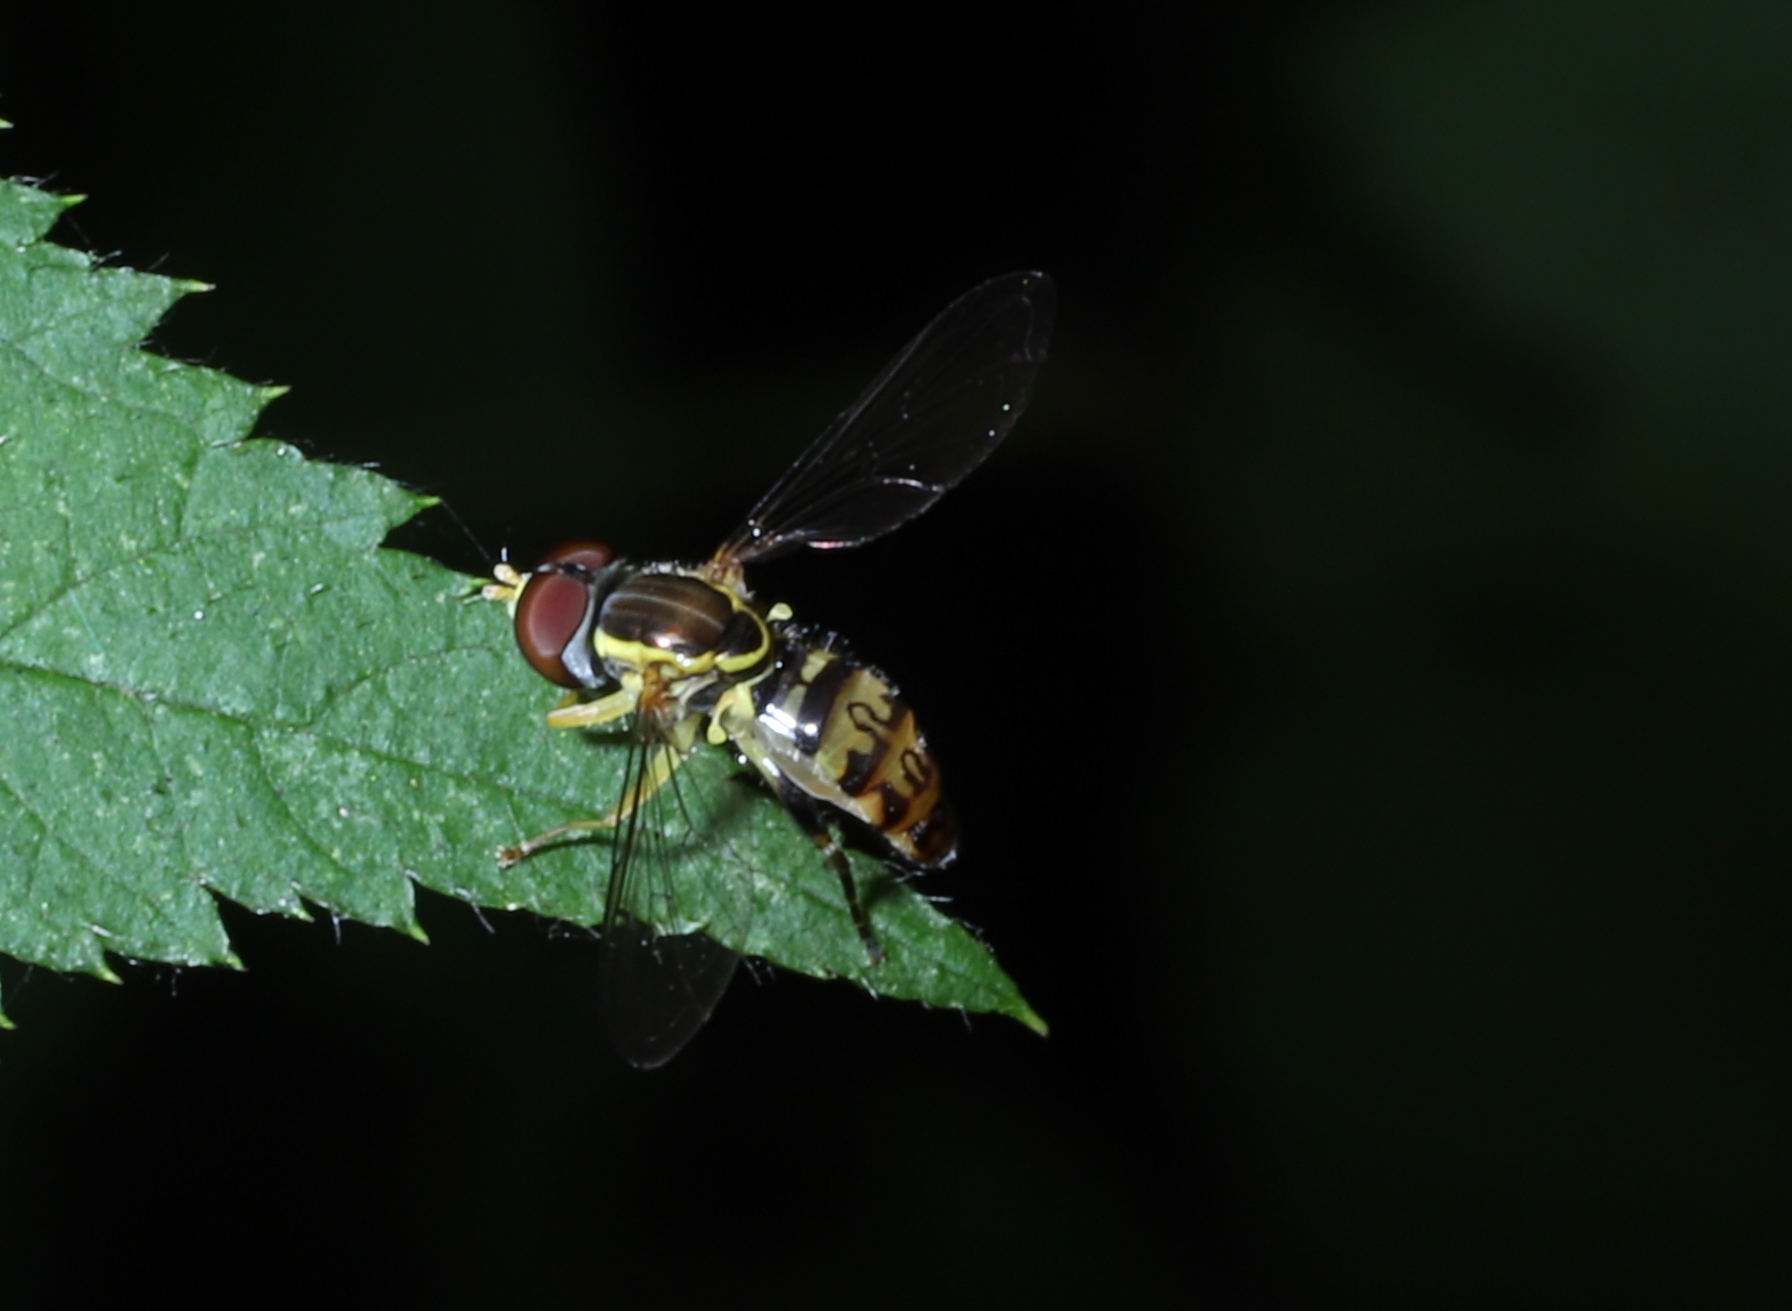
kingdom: Animalia
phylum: Arthropoda
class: Insecta
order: Diptera
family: Syrphidae
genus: Toxomerus
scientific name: Toxomerus geminatus
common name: Eastern calligrapher
